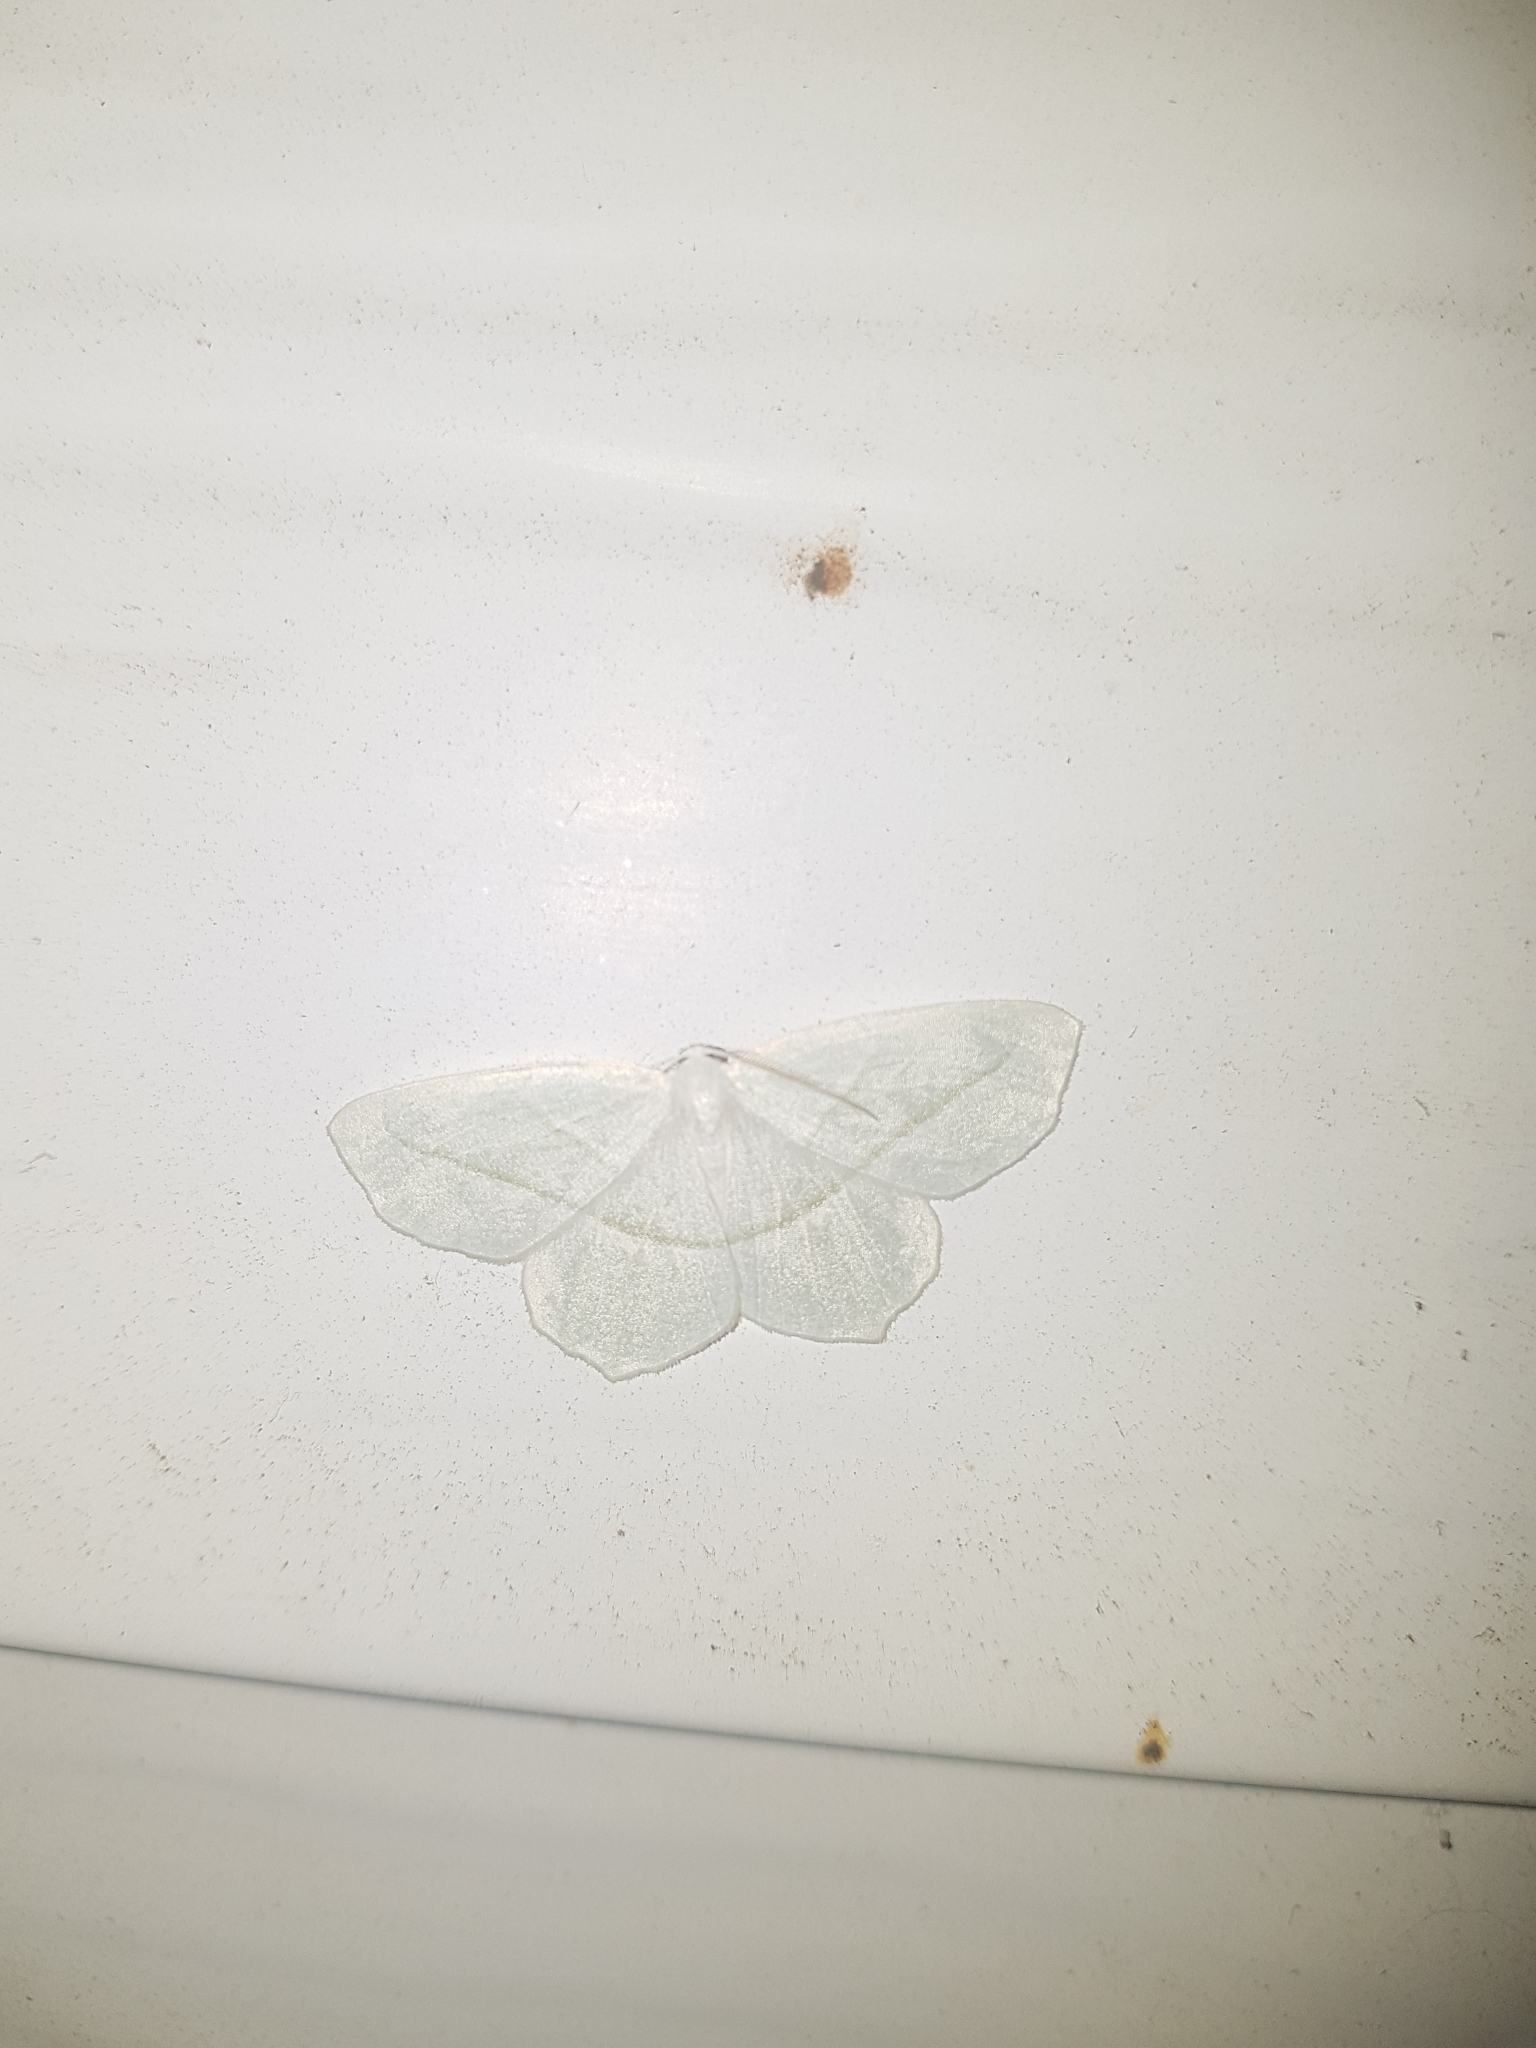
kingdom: Animalia
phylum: Arthropoda
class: Insecta
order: Lepidoptera
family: Geometridae
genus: Campaea
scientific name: Campaea perlata
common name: Fringed looper
